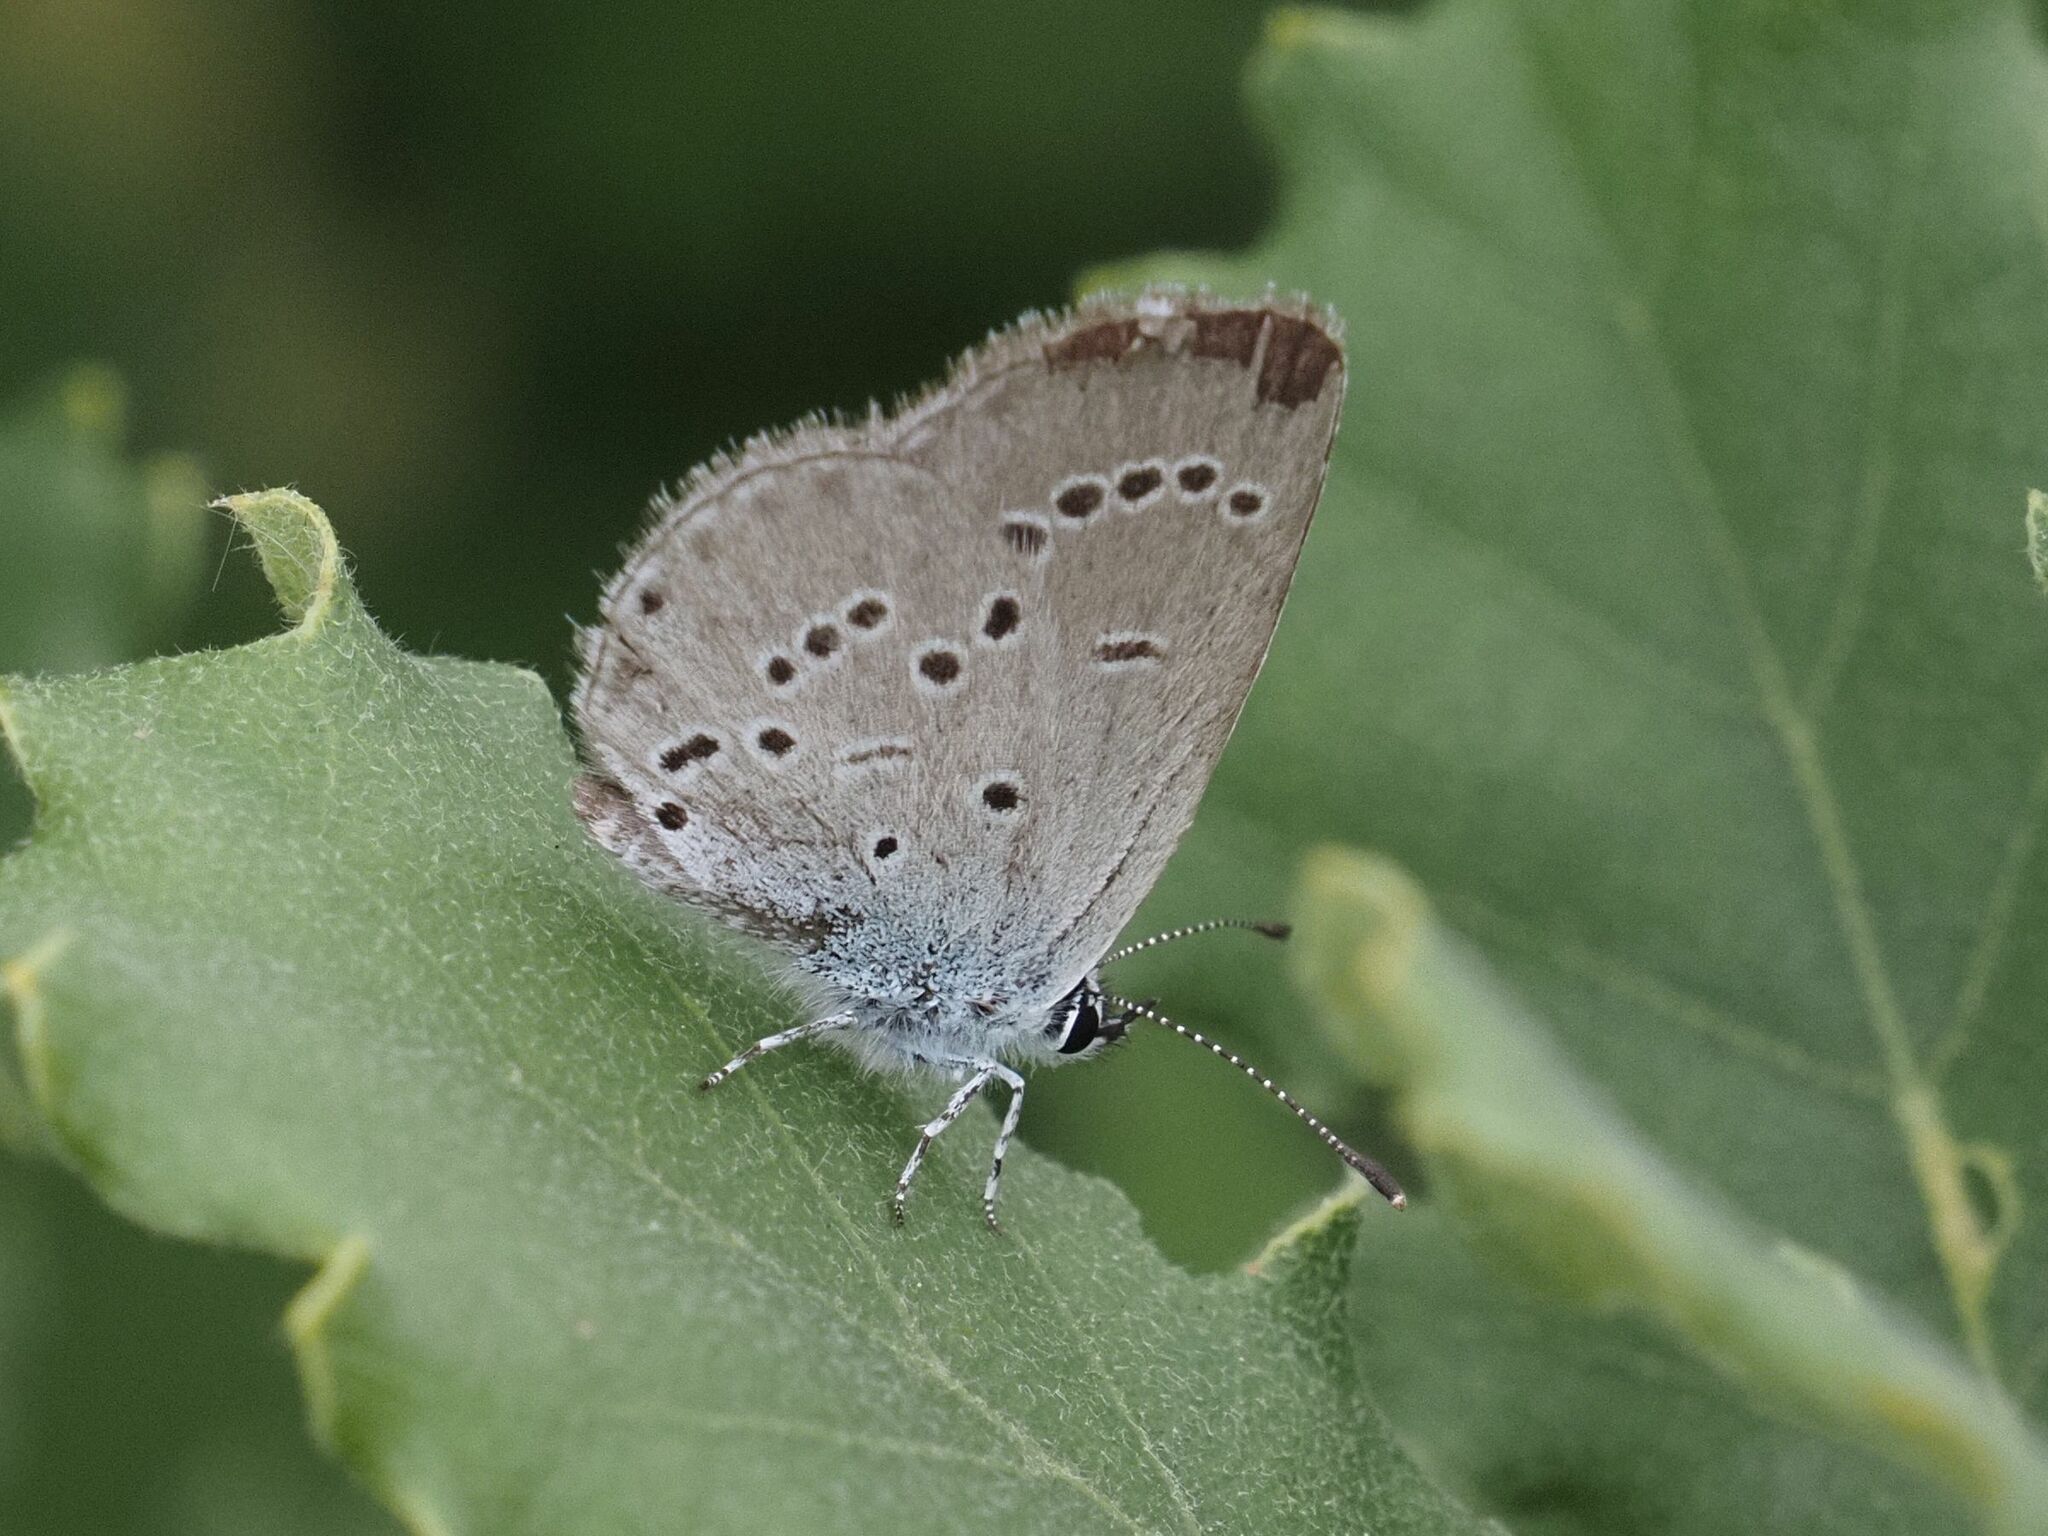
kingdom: Animalia
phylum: Arthropoda
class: Insecta
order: Lepidoptera
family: Lycaenidae
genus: Cupido
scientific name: Cupido minimus
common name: Small blue
